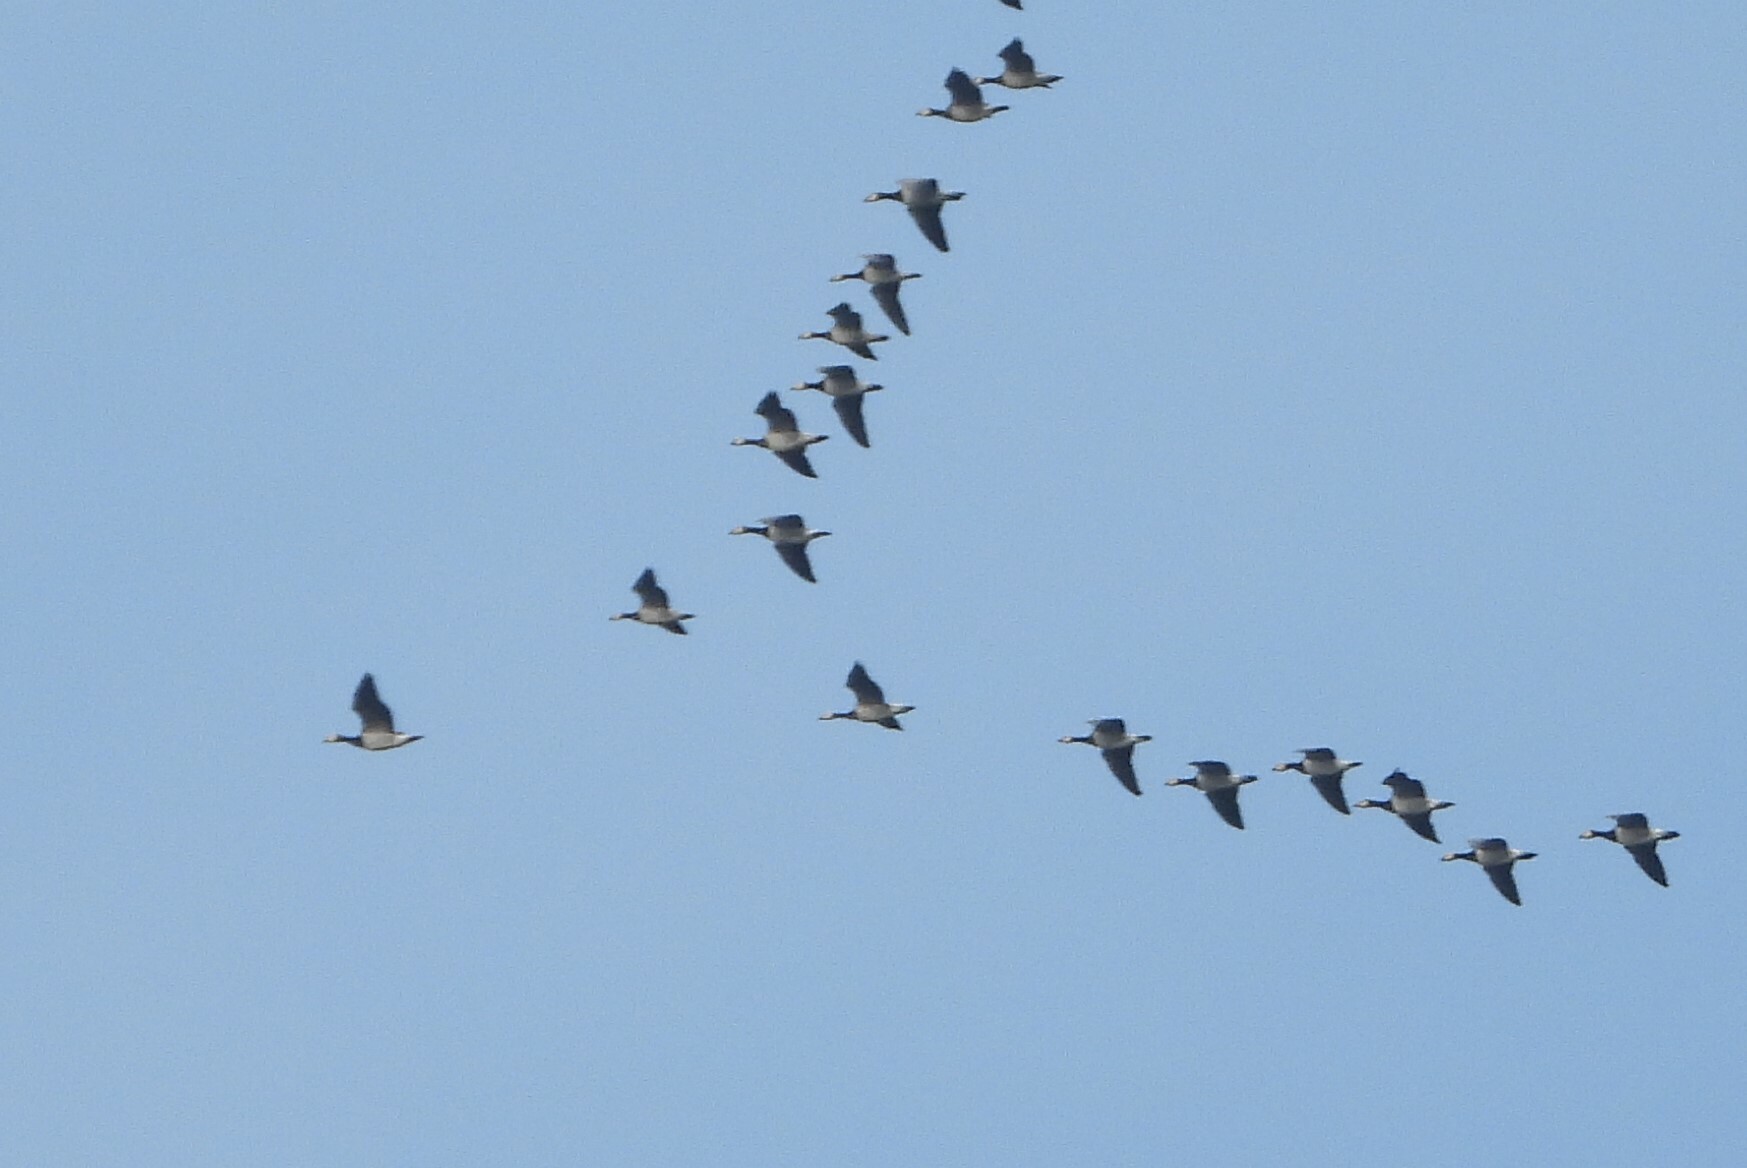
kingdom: Animalia
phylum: Chordata
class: Aves
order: Anseriformes
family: Anatidae
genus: Branta
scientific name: Branta leucopsis
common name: Barnacle goose
